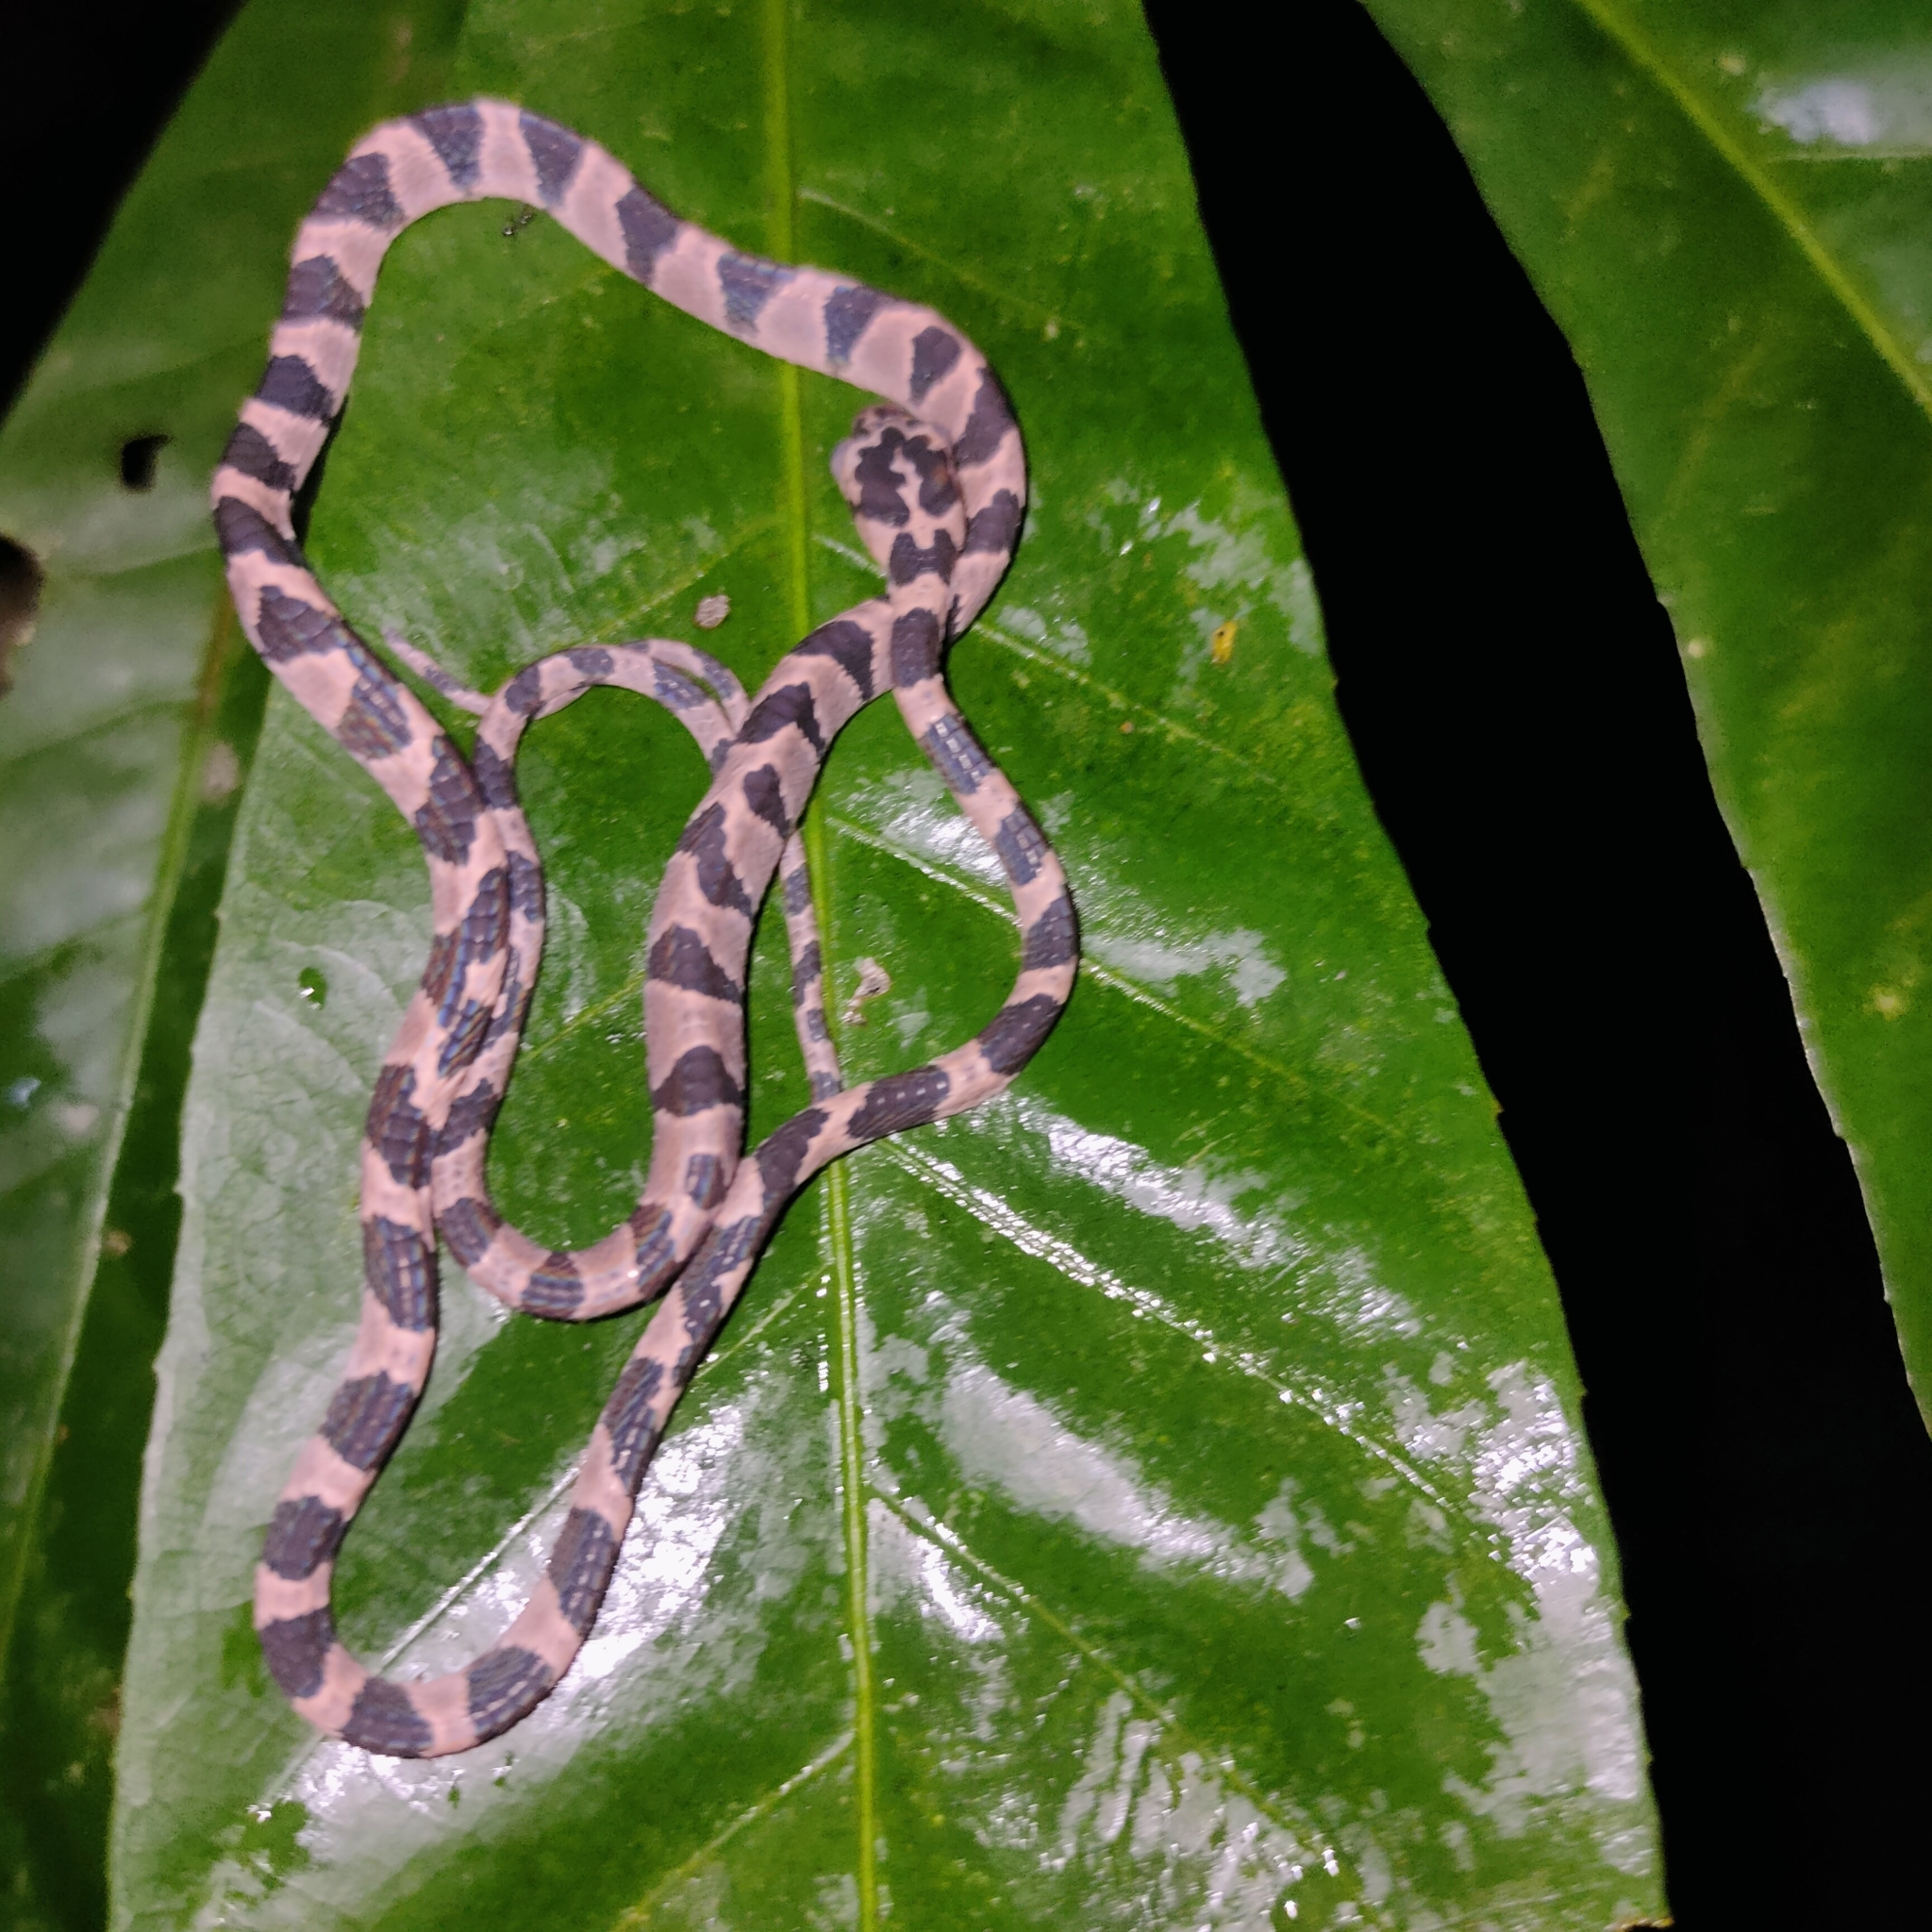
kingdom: Animalia
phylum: Chordata
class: Squamata
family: Colubridae
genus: Imantodes
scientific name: Imantodes cenchoa
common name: Blunthead tree snake
